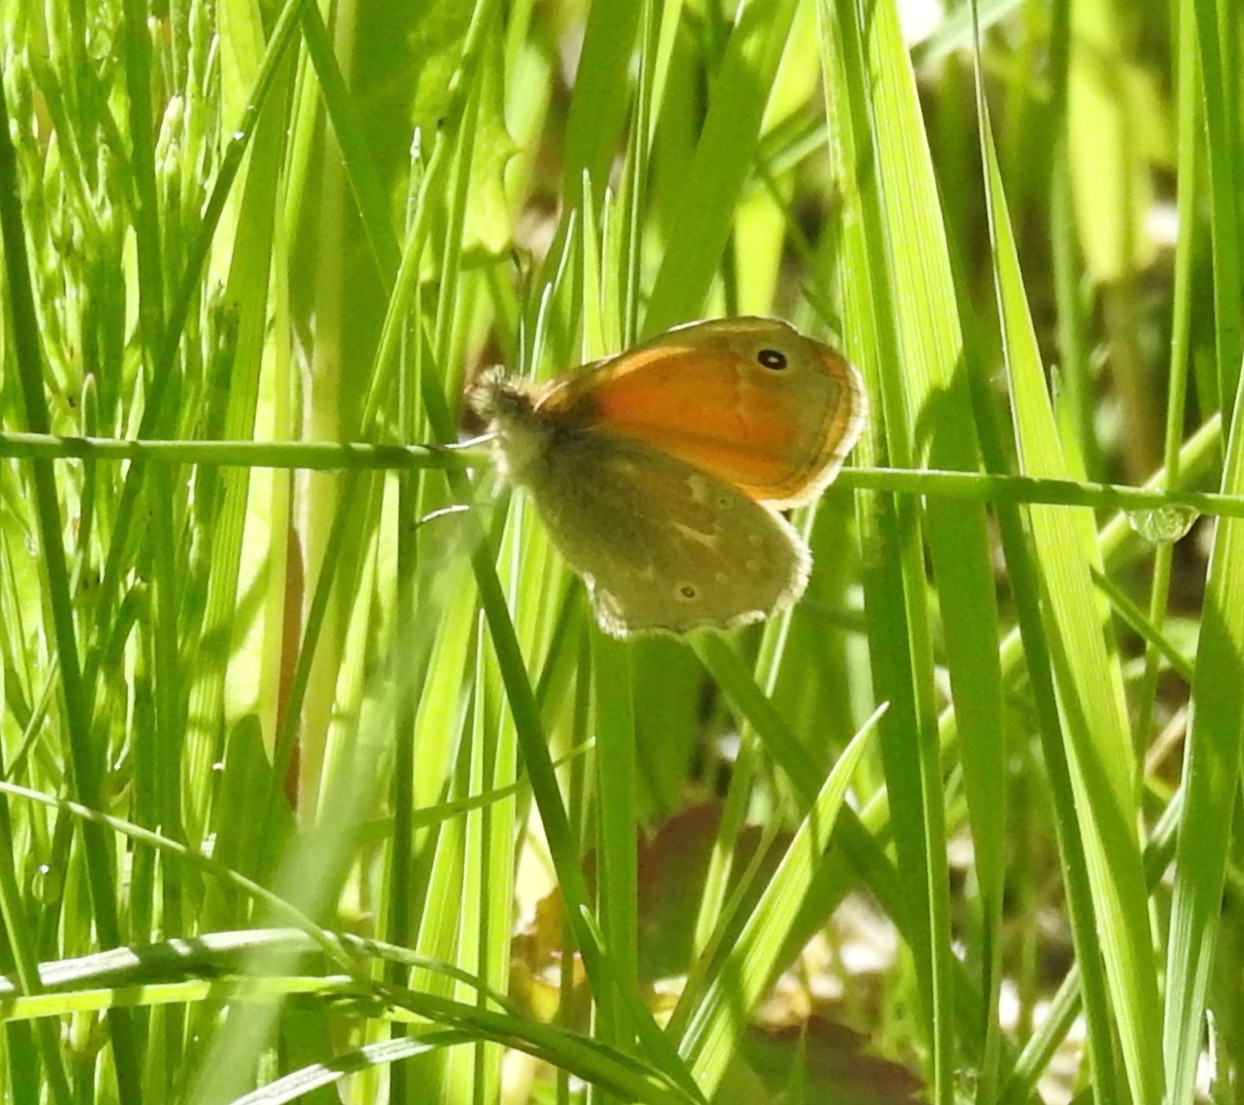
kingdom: Animalia
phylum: Arthropoda
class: Insecta
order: Lepidoptera
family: Nymphalidae
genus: Coenonympha
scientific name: Coenonympha california
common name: Common ringlet
